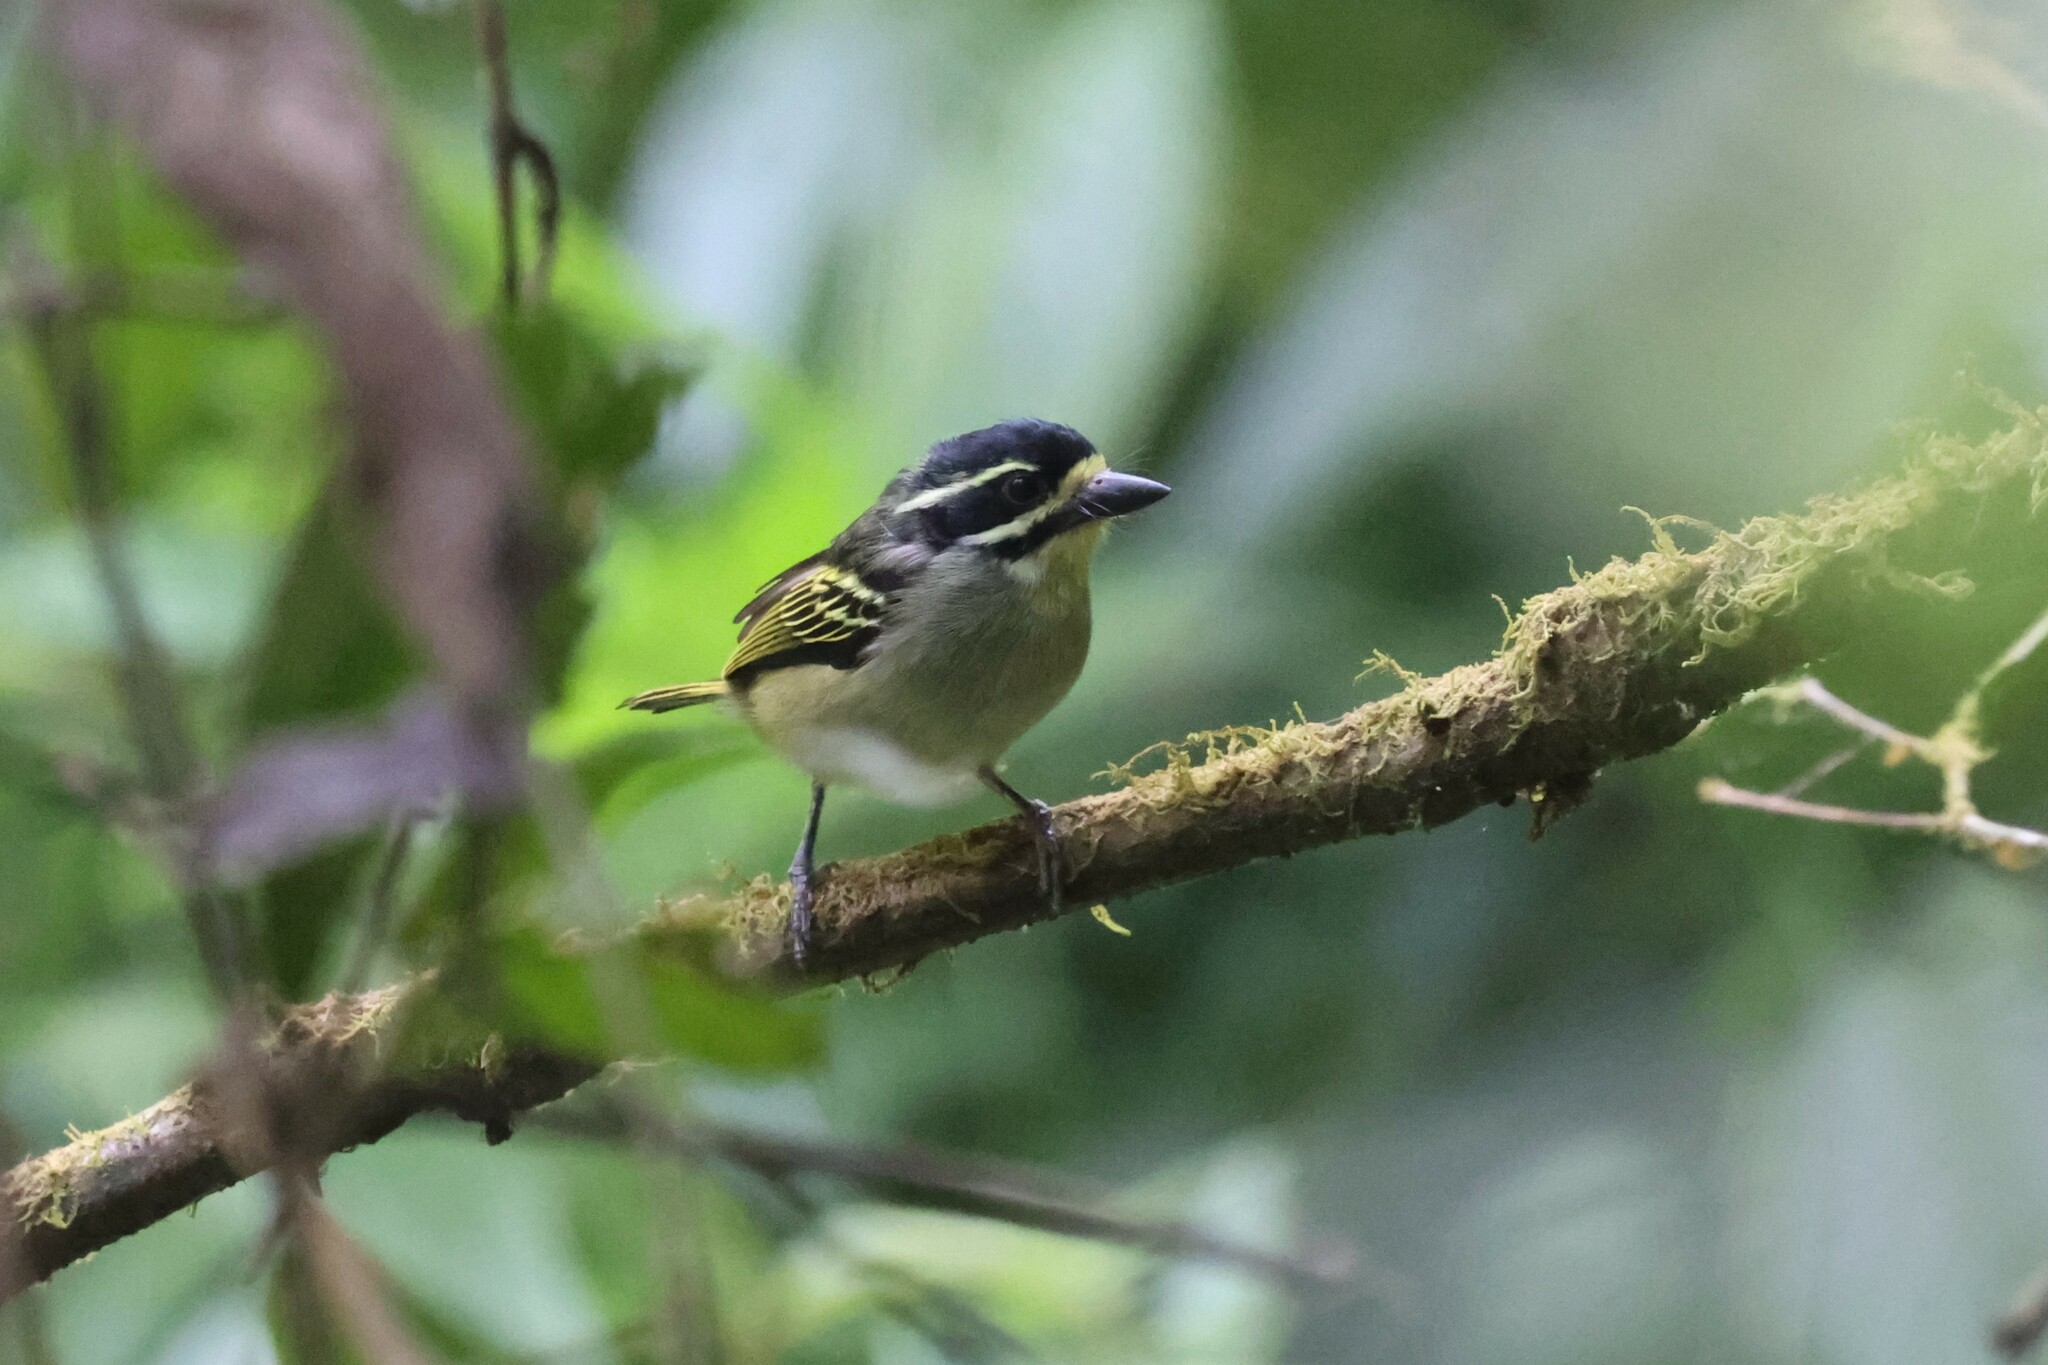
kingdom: Animalia
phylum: Chordata
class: Aves
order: Piciformes
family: Lybiidae
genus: Pogoniulus
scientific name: Pogoniulus subsulphureus
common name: Yellow-throated tinkerbird
